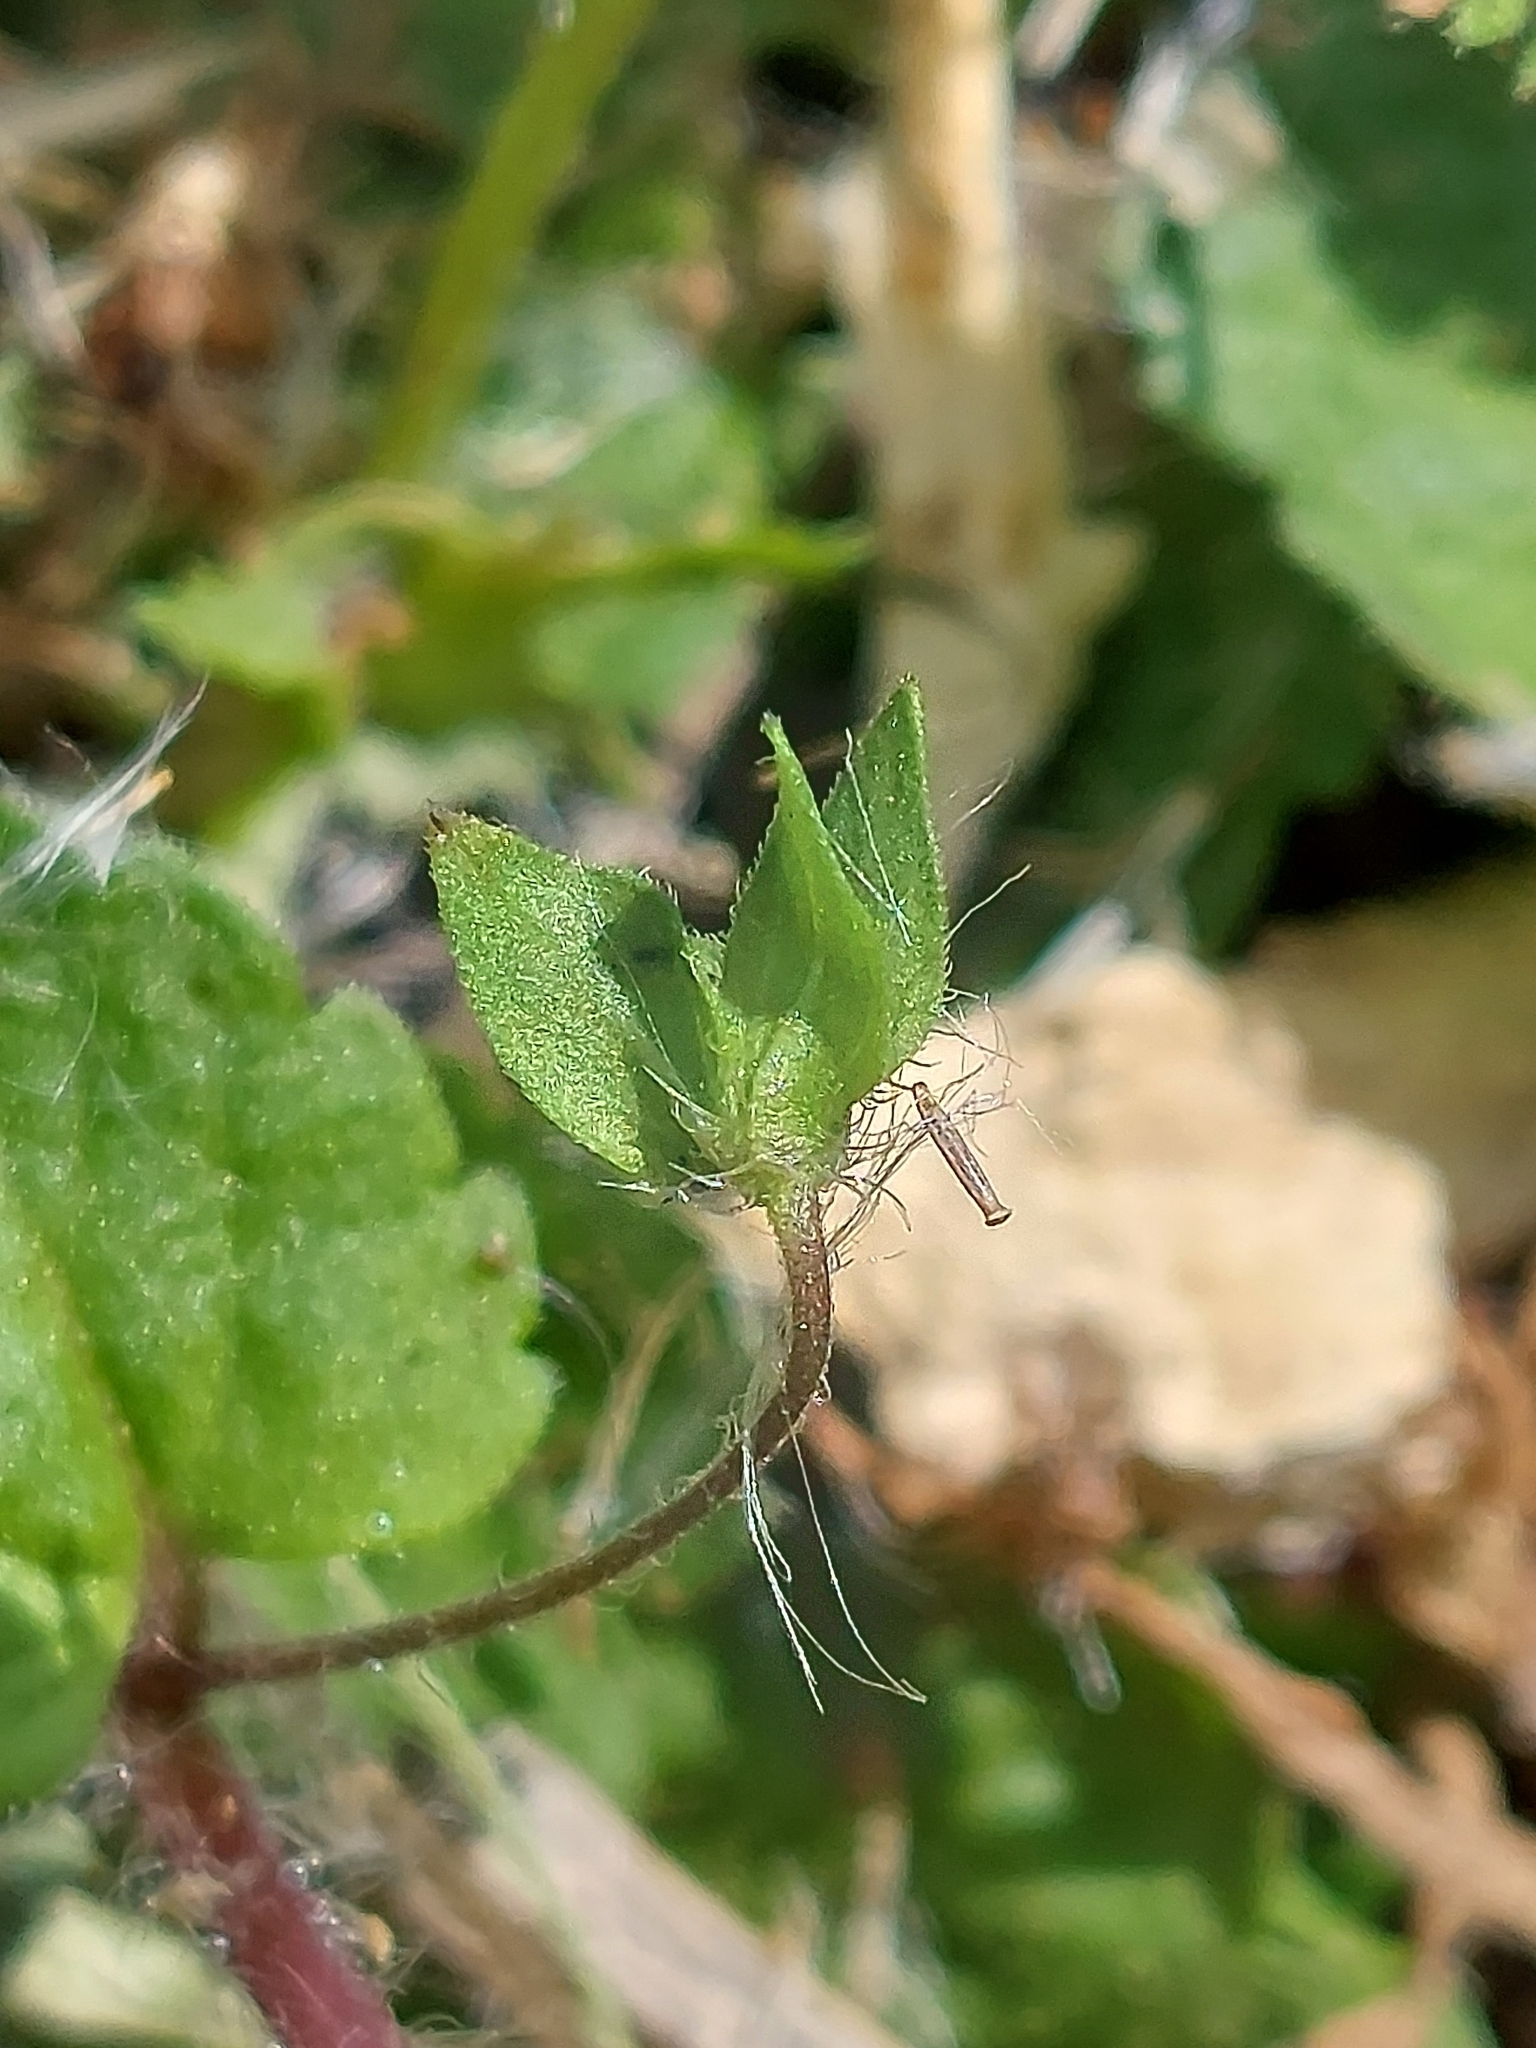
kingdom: Plantae
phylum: Tracheophyta
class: Magnoliopsida
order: Lamiales
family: Plantaginaceae
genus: Veronica
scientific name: Veronica persica
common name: Common field-speedwell
